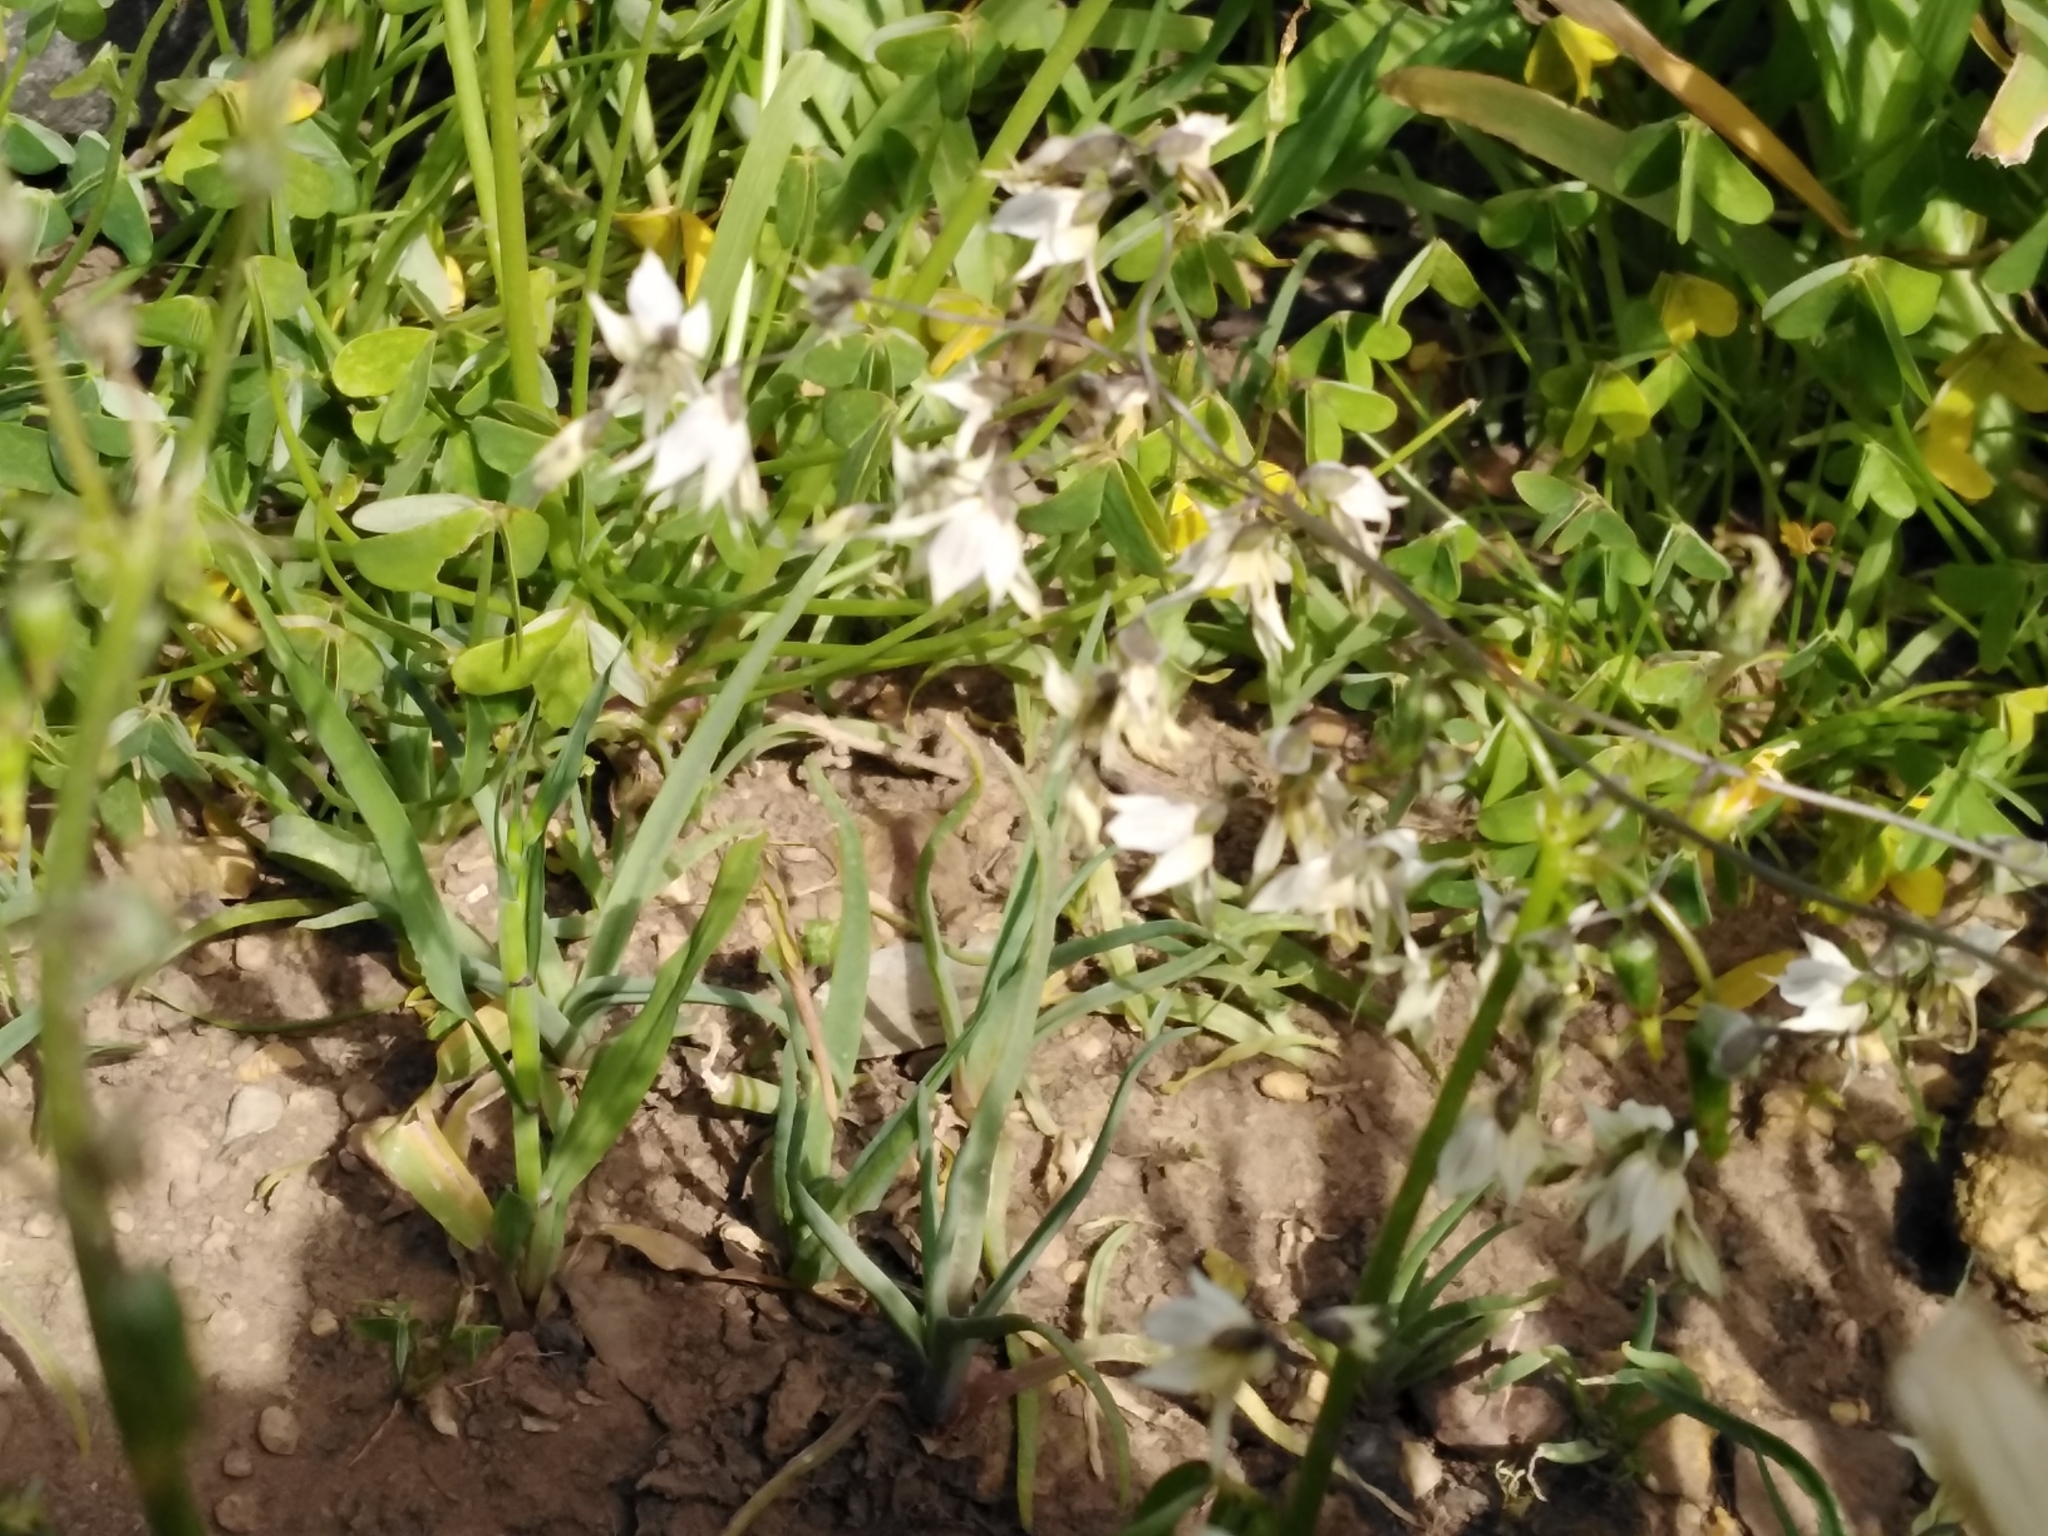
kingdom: Plantae
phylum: Tracheophyta
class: Liliopsida
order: Asparagales
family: Iridaceae
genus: Melasphaerula
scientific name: Melasphaerula graminea
